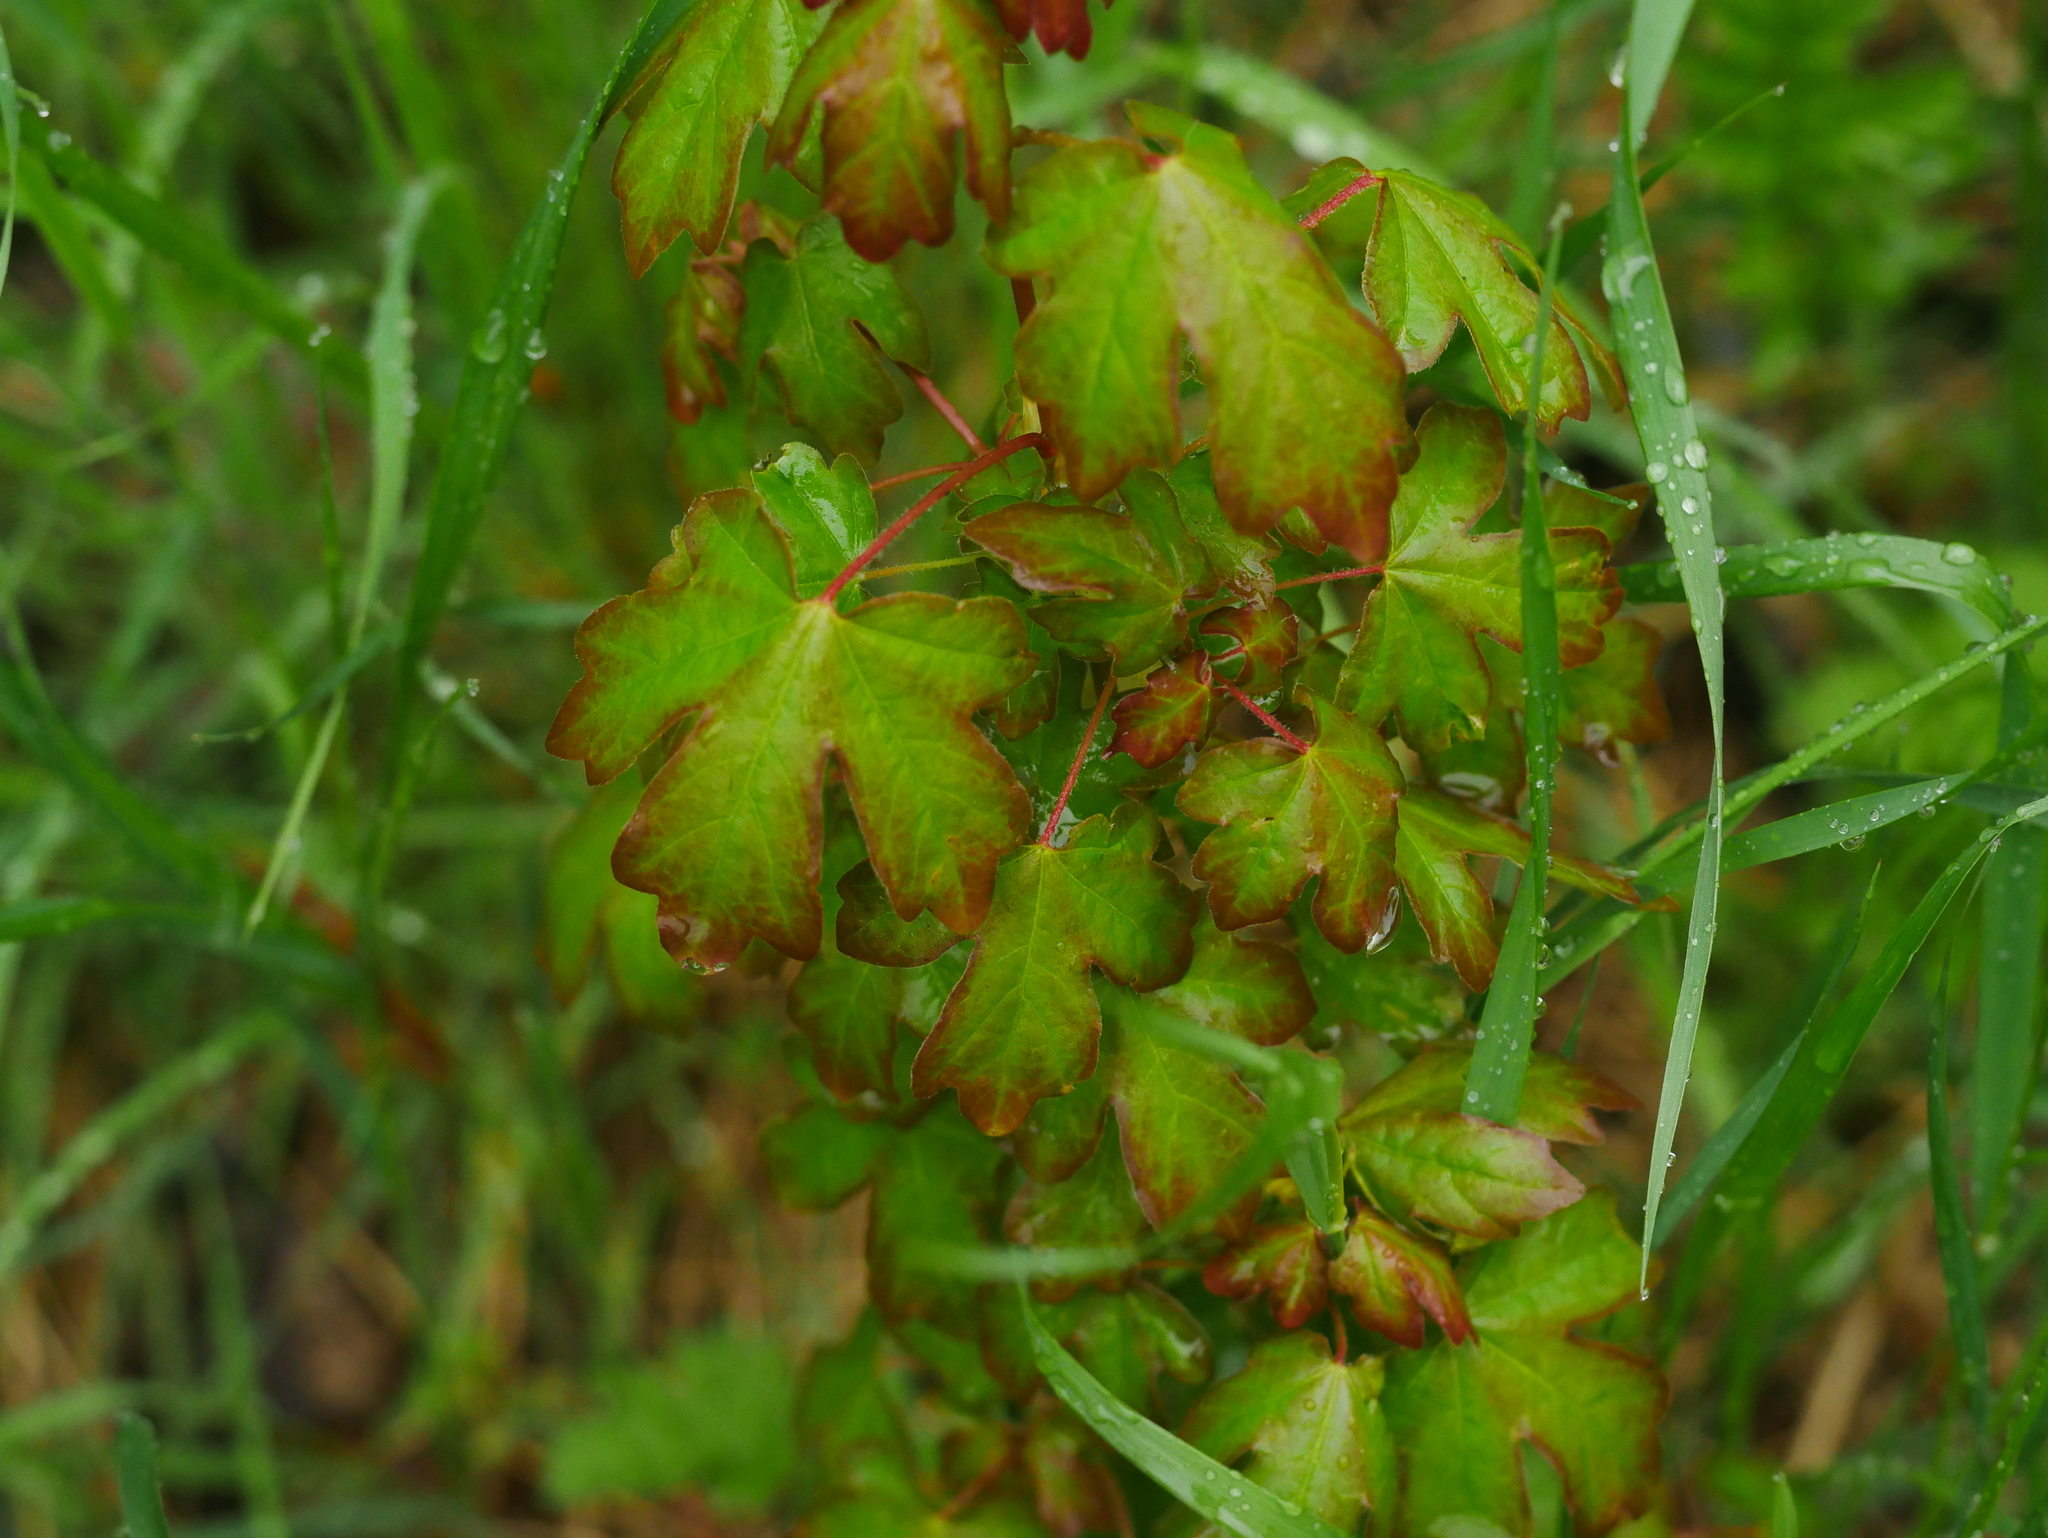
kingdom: Plantae
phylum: Tracheophyta
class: Magnoliopsida
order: Sapindales
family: Sapindaceae
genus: Acer
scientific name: Acer campestre
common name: Field maple
